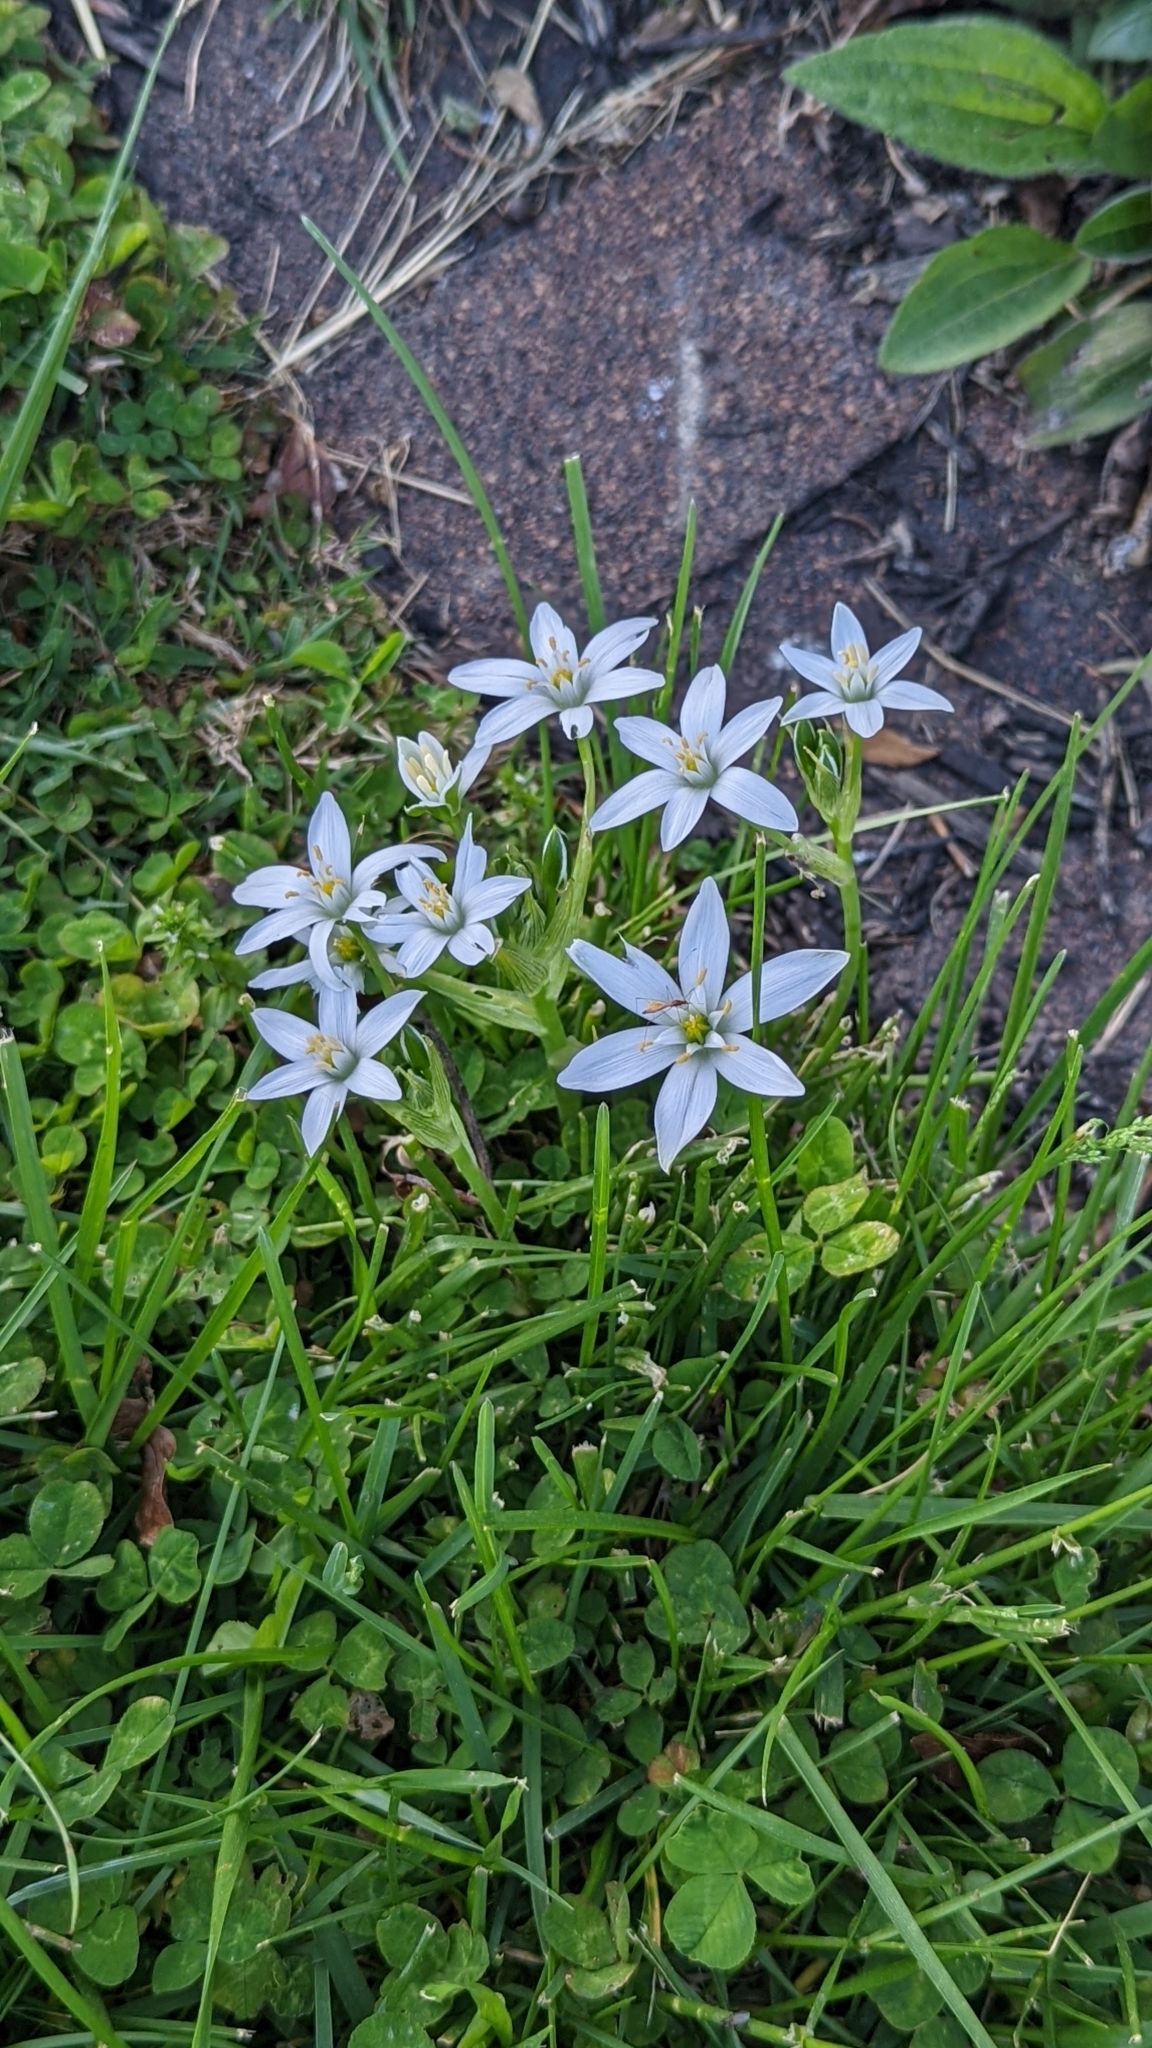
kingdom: Plantae
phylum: Tracheophyta
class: Liliopsida
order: Asparagales
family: Asparagaceae
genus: Ornithogalum
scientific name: Ornithogalum umbellatum
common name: Garden star-of-bethlehem
